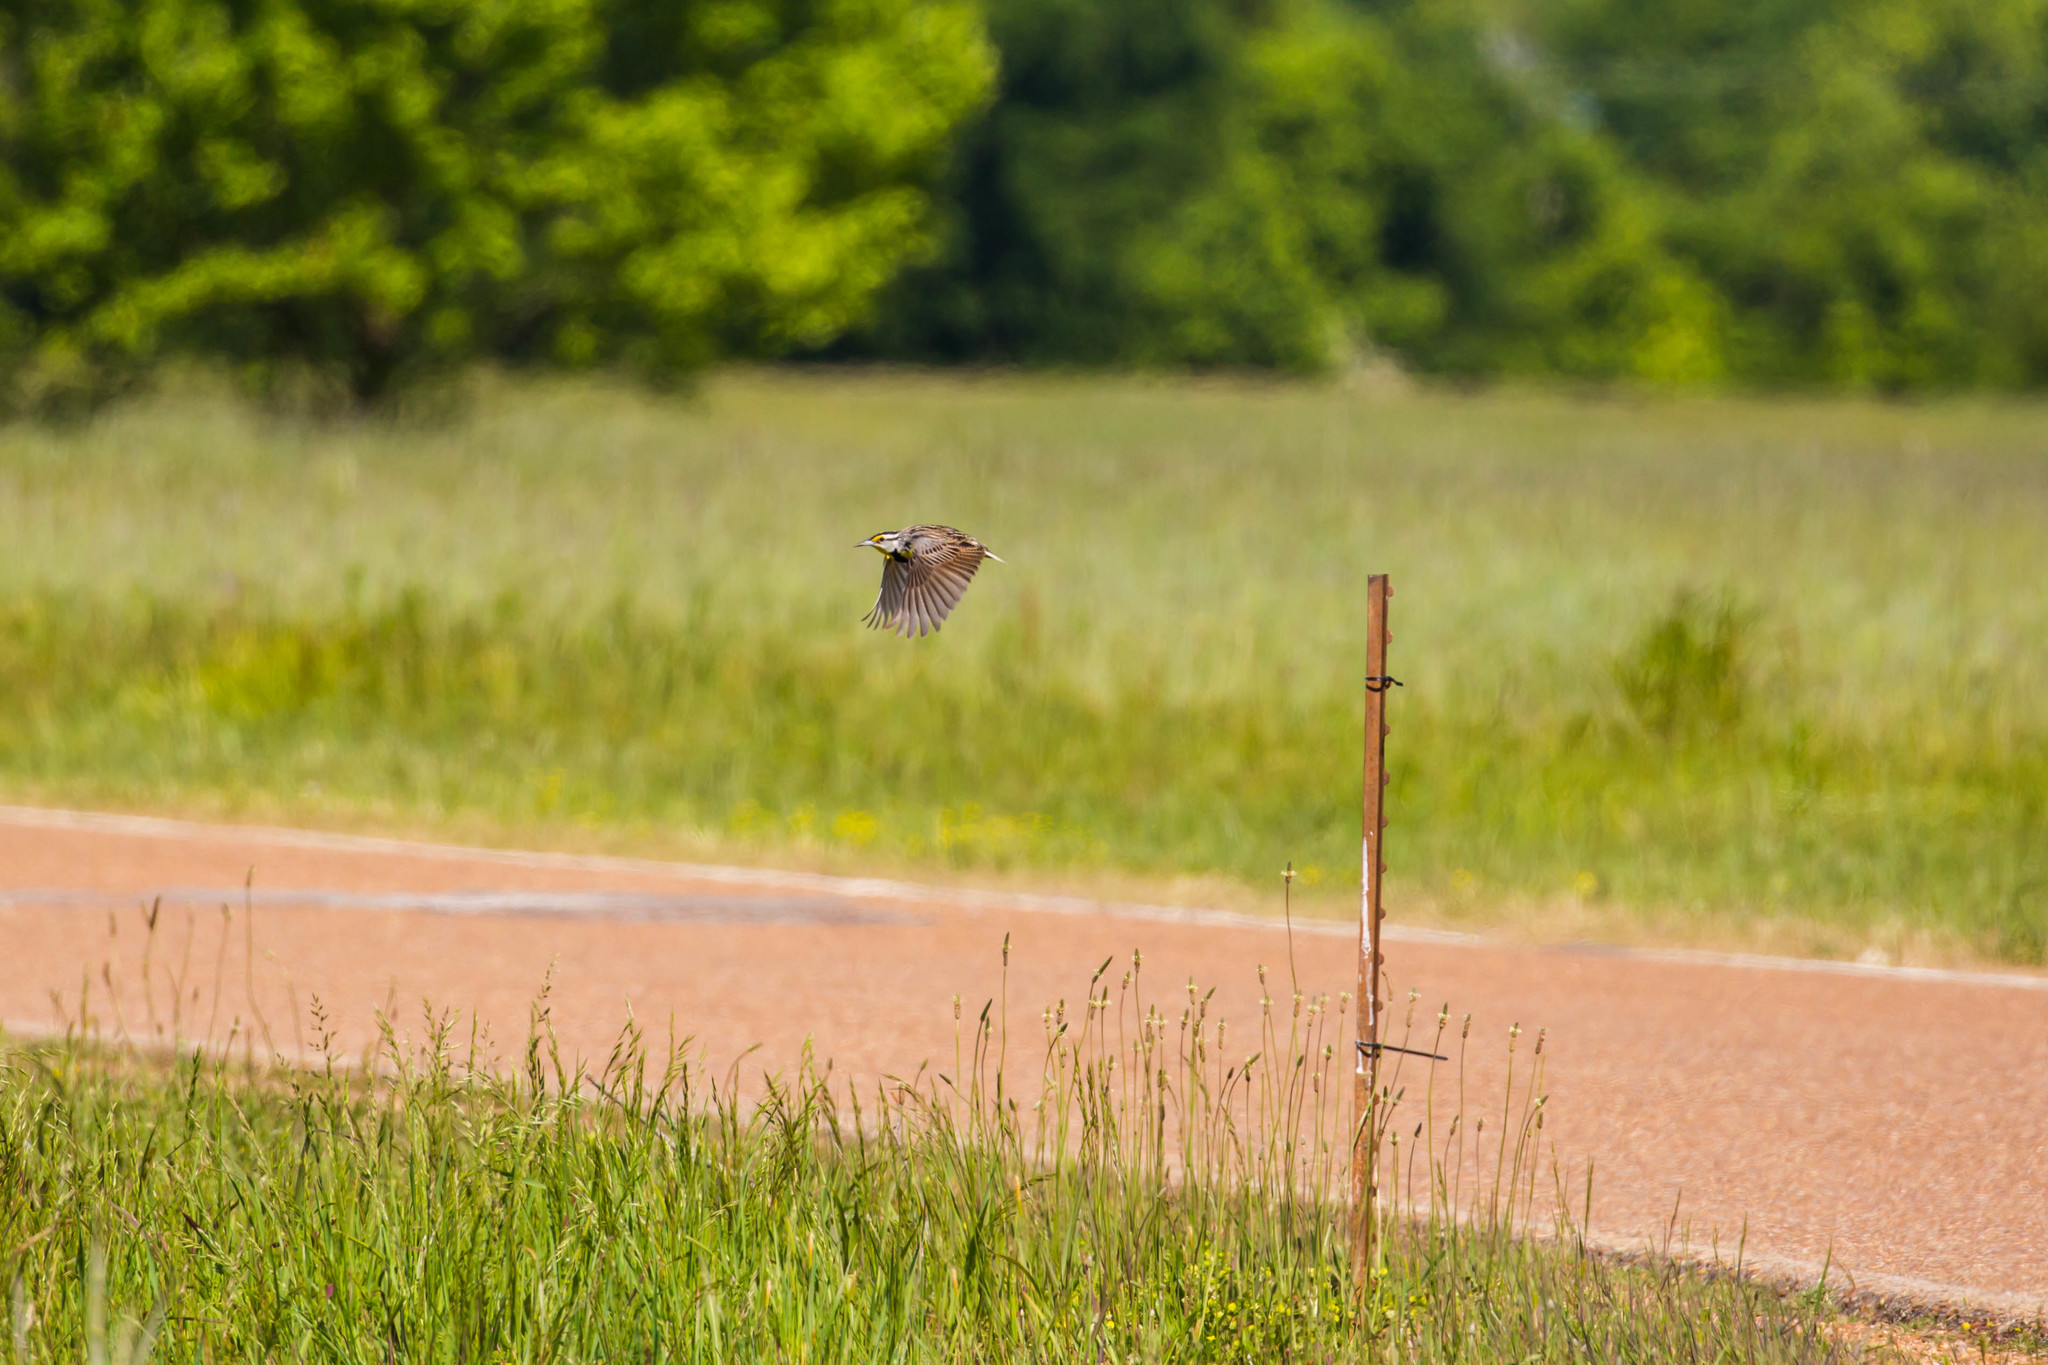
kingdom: Animalia
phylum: Chordata
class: Aves
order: Passeriformes
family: Icteridae
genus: Sturnella
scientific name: Sturnella magna
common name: Eastern meadowlark
